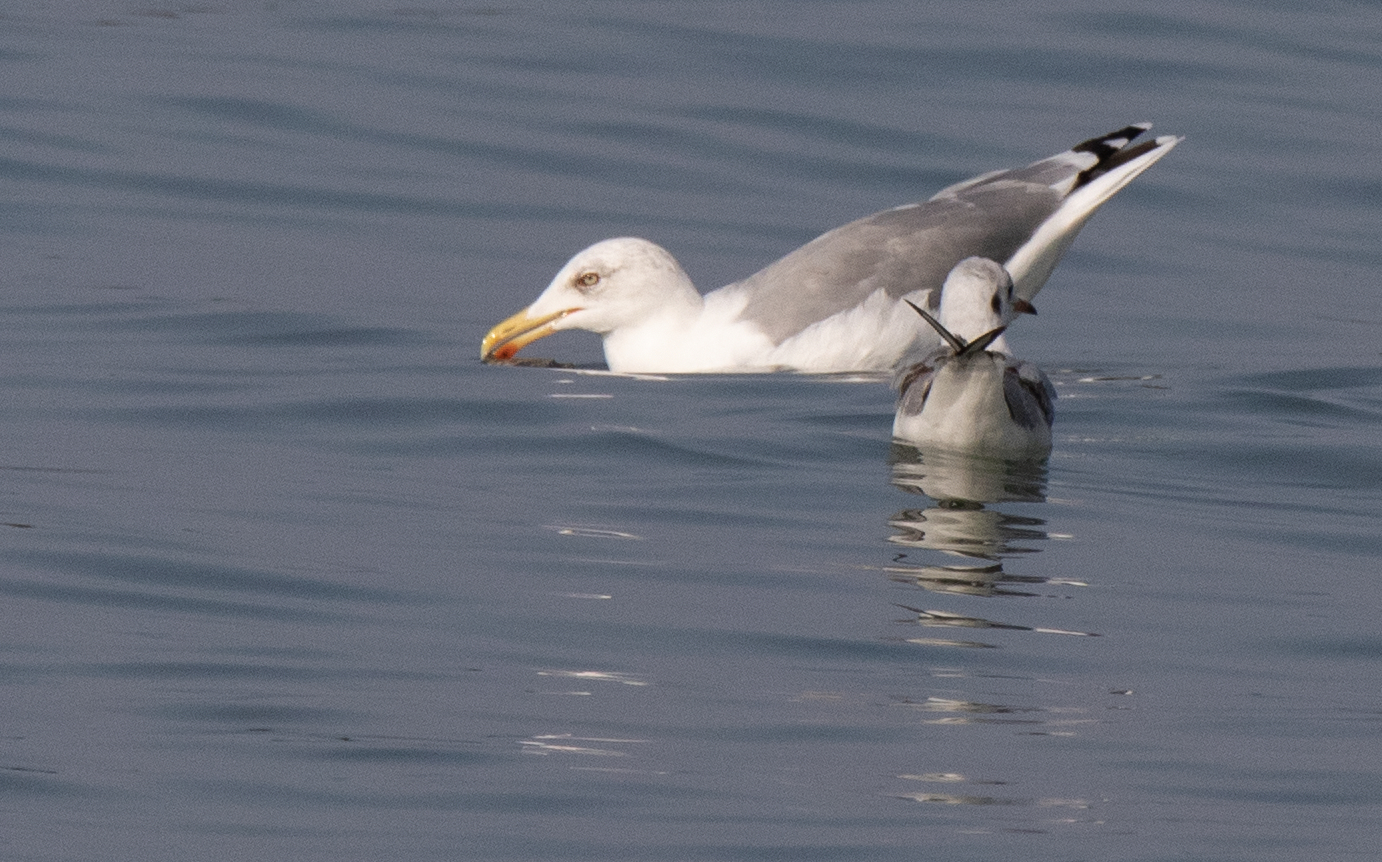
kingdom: Animalia
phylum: Chordata
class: Aves
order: Charadriiformes
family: Laridae
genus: Larus
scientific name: Larus michahellis
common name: Yellow-legged gull
